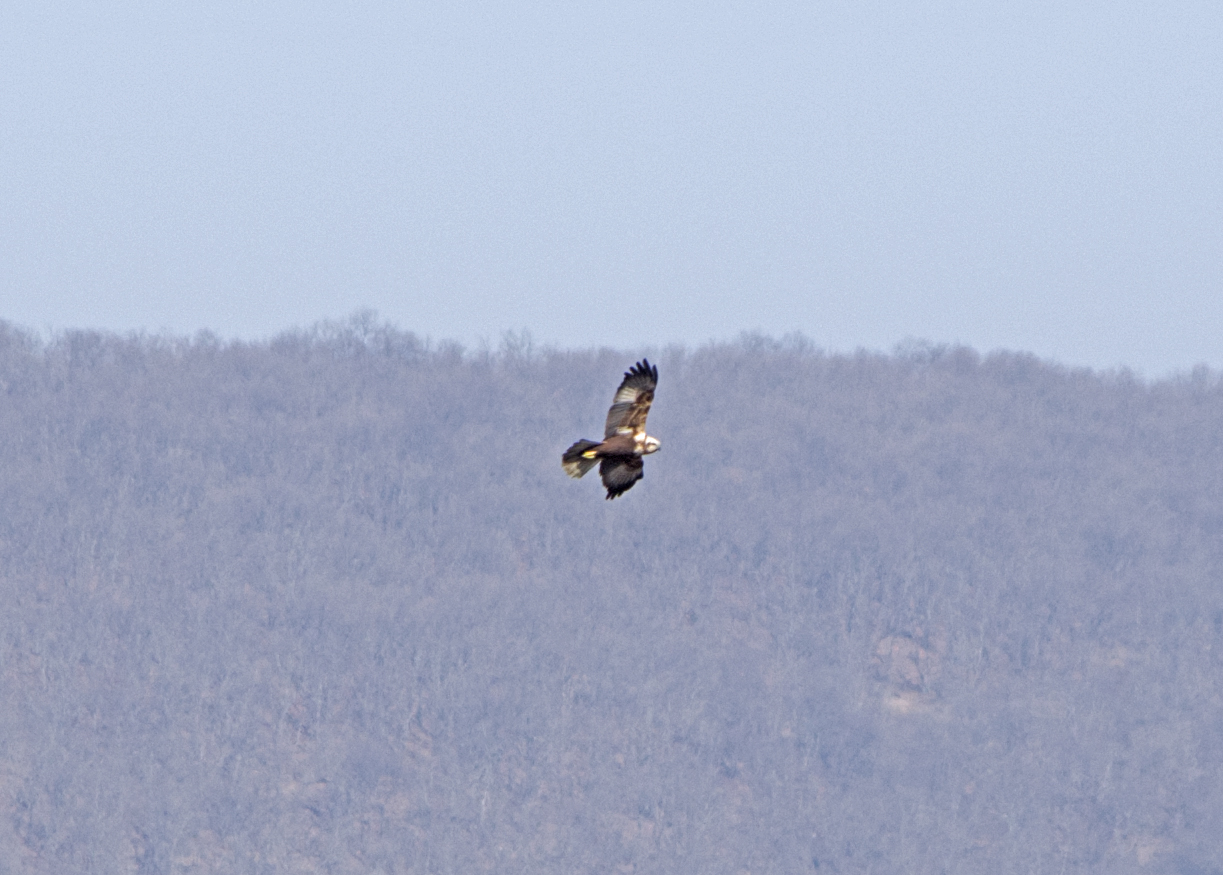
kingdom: Animalia
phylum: Chordata
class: Aves
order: Accipitriformes
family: Accipitridae
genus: Circus
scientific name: Circus aeruginosus
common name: Western marsh harrier
